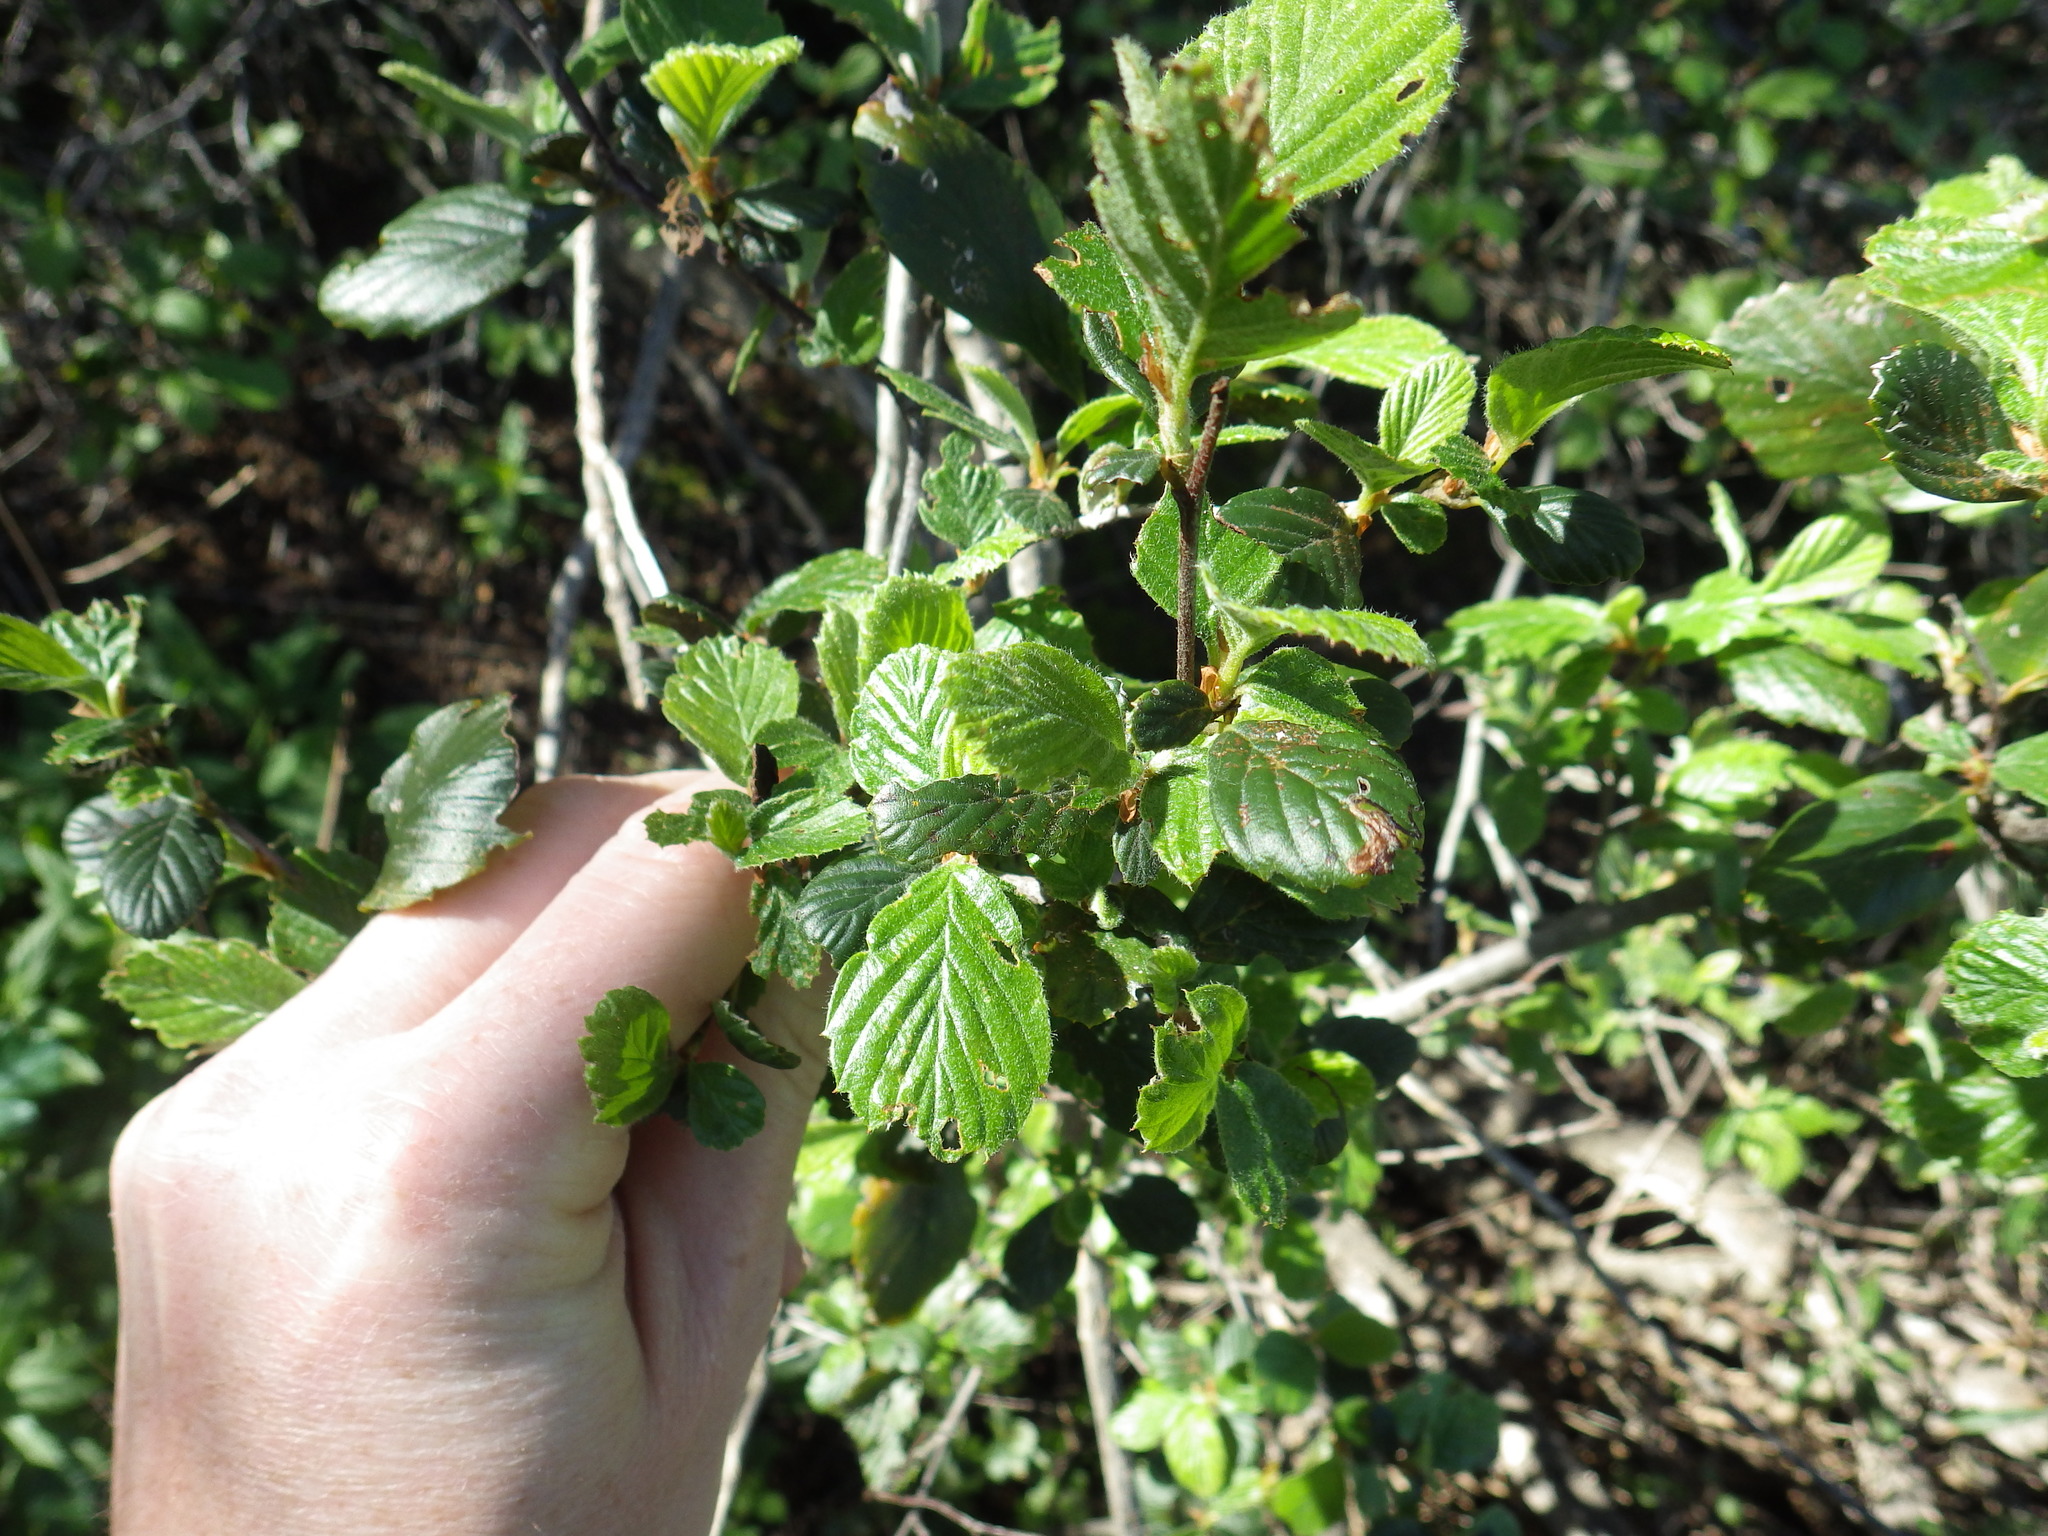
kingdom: Plantae
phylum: Tracheophyta
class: Magnoliopsida
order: Rosales
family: Rosaceae
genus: Cercocarpus
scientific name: Cercocarpus betuloides
